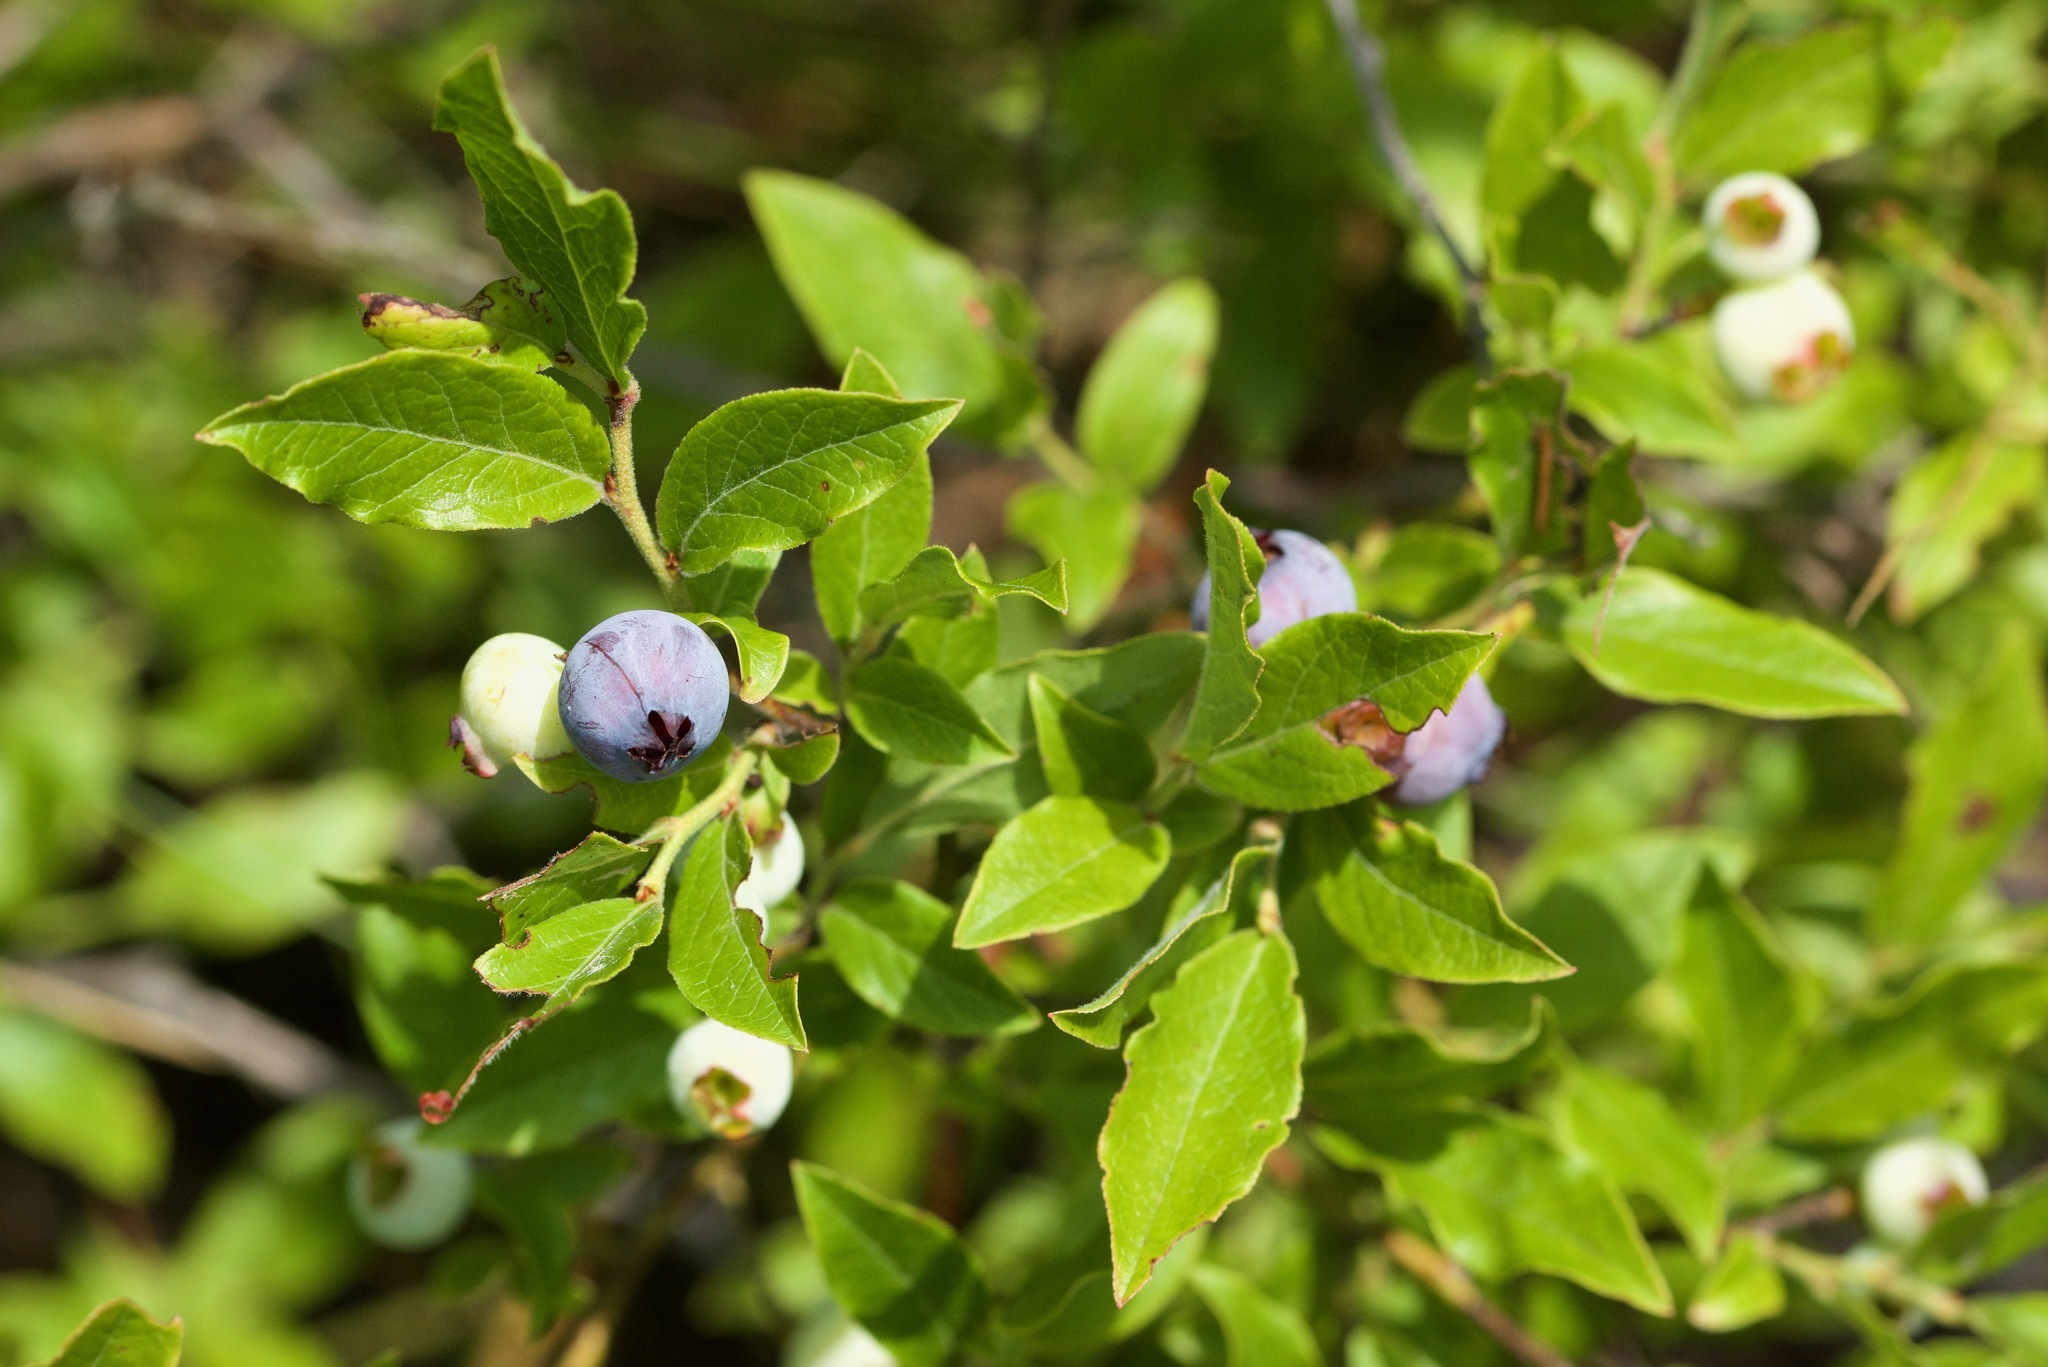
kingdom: Plantae
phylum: Tracheophyta
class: Magnoliopsida
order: Ericales
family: Ericaceae
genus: Vaccinium
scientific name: Vaccinium angustifolium
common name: Early lowbush blueberry
